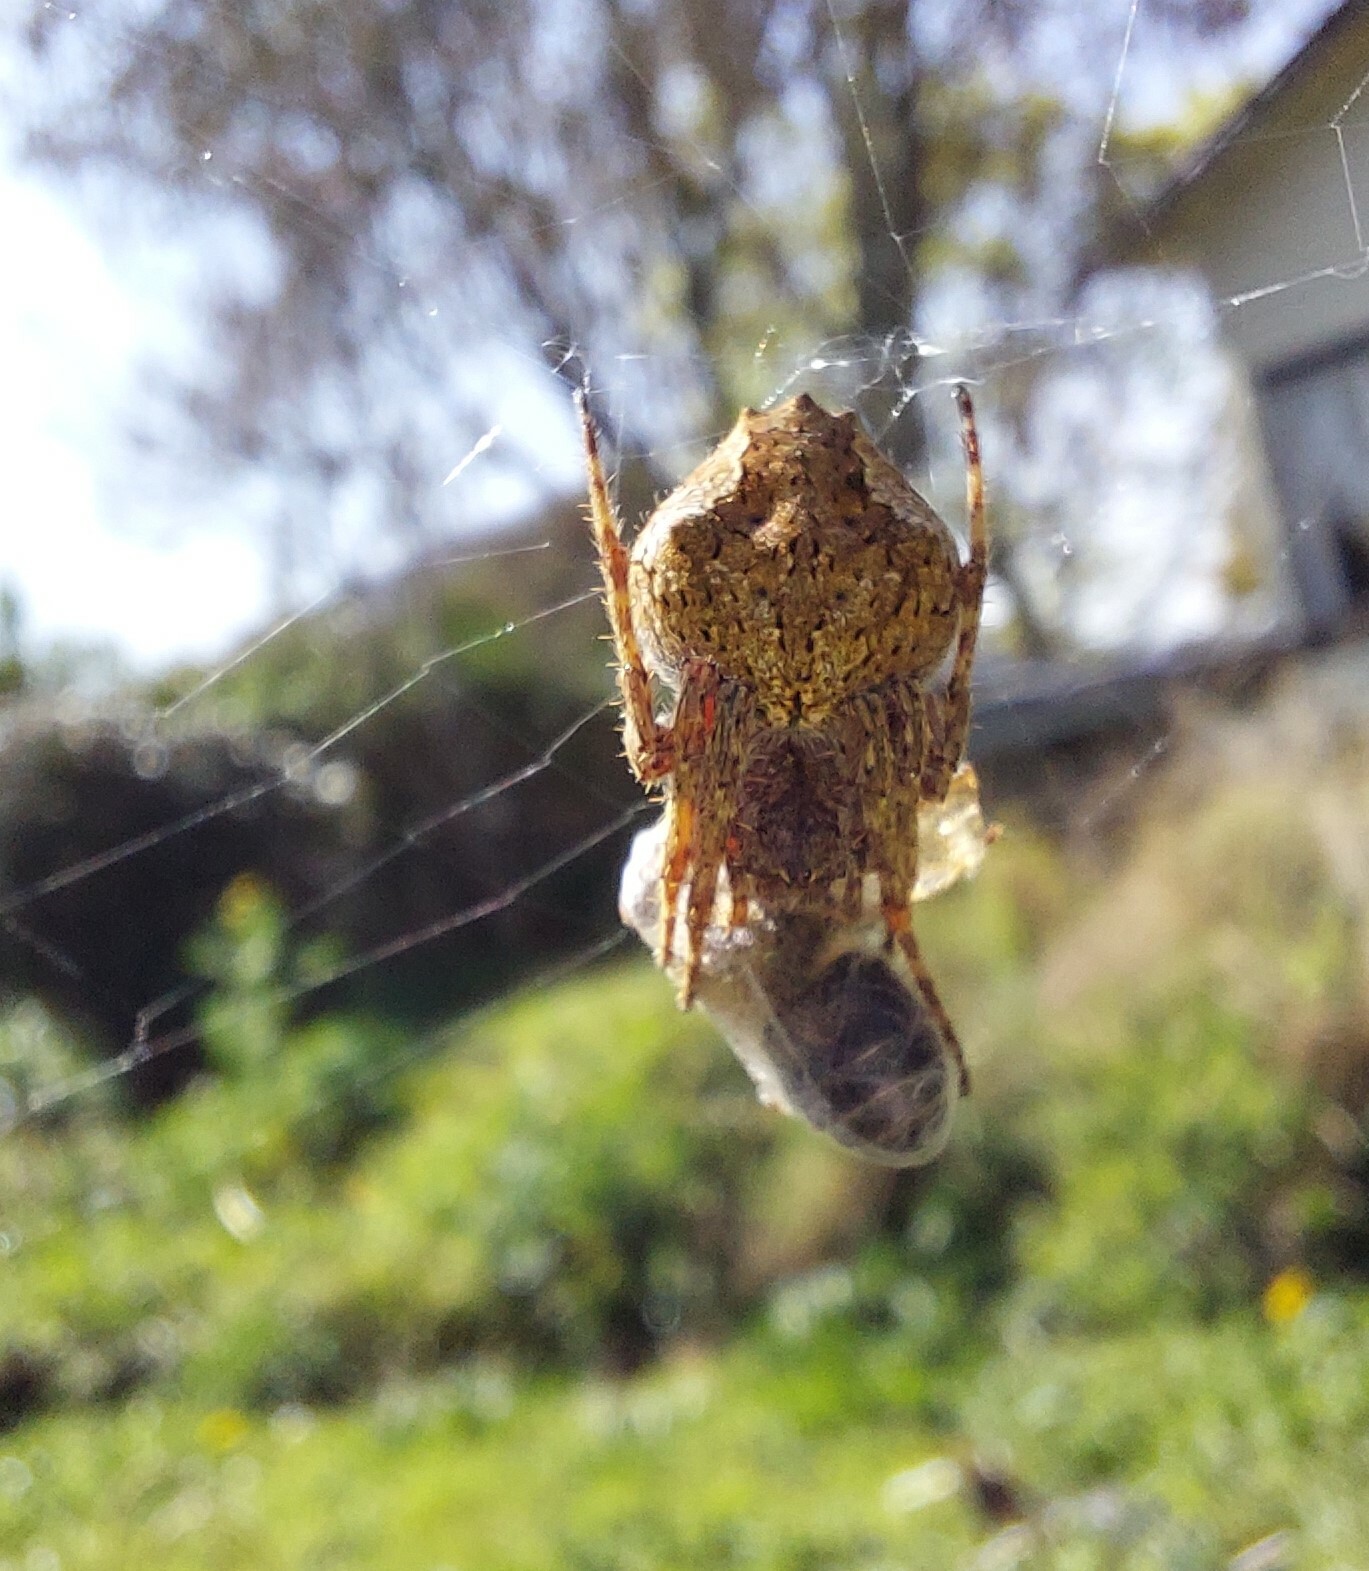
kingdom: Animalia
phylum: Arthropoda
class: Arachnida
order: Araneae
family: Araneidae
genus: Eriophora
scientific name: Eriophora pustulosa
